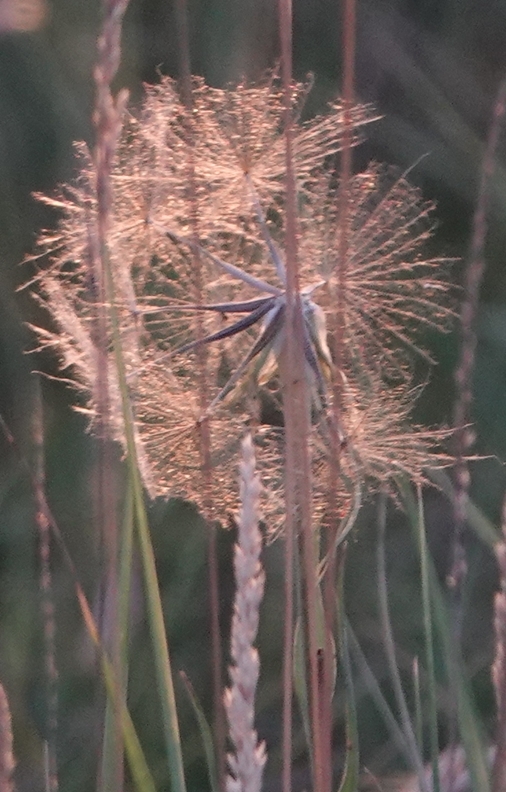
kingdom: Plantae
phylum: Tracheophyta
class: Magnoliopsida
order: Asterales
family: Asteraceae
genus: Tragopogon
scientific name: Tragopogon dubius
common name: Yellow salsify
